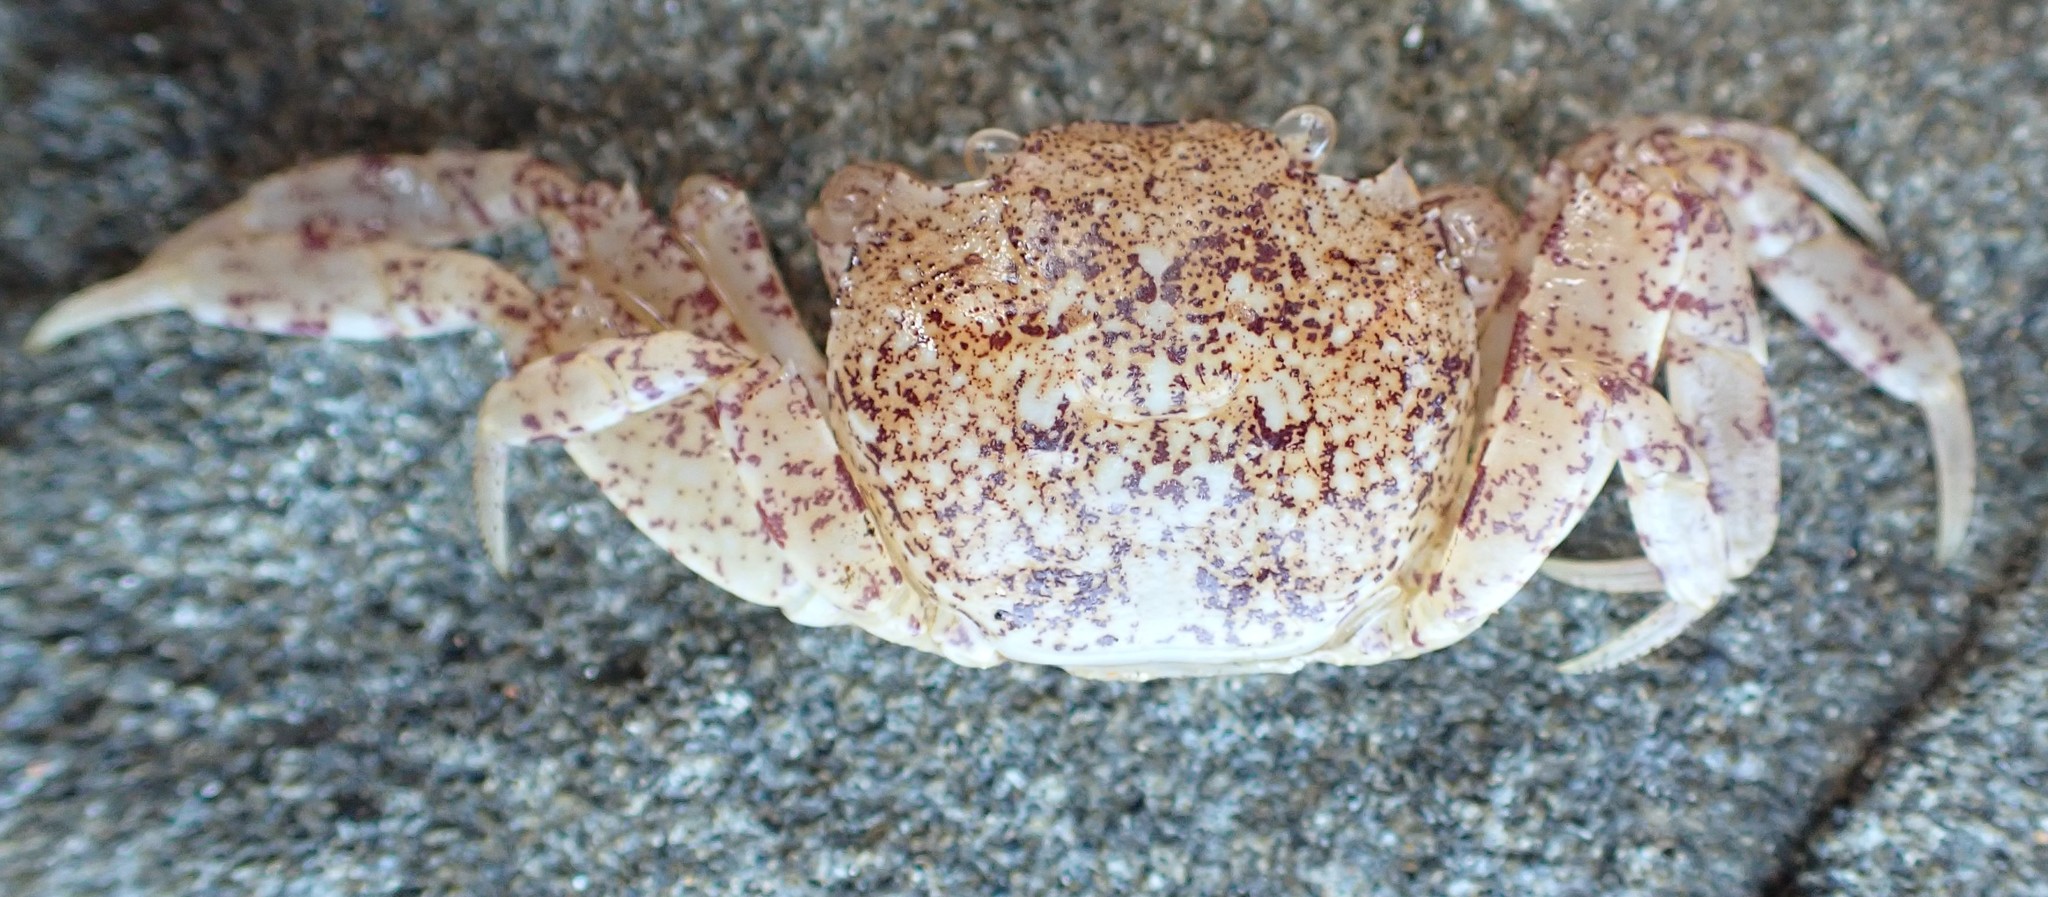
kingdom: Animalia
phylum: Arthropoda
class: Malacostraca
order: Decapoda
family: Leptograpsodidae
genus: Leptograpsodes
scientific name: Leptograpsodes octodentatus
